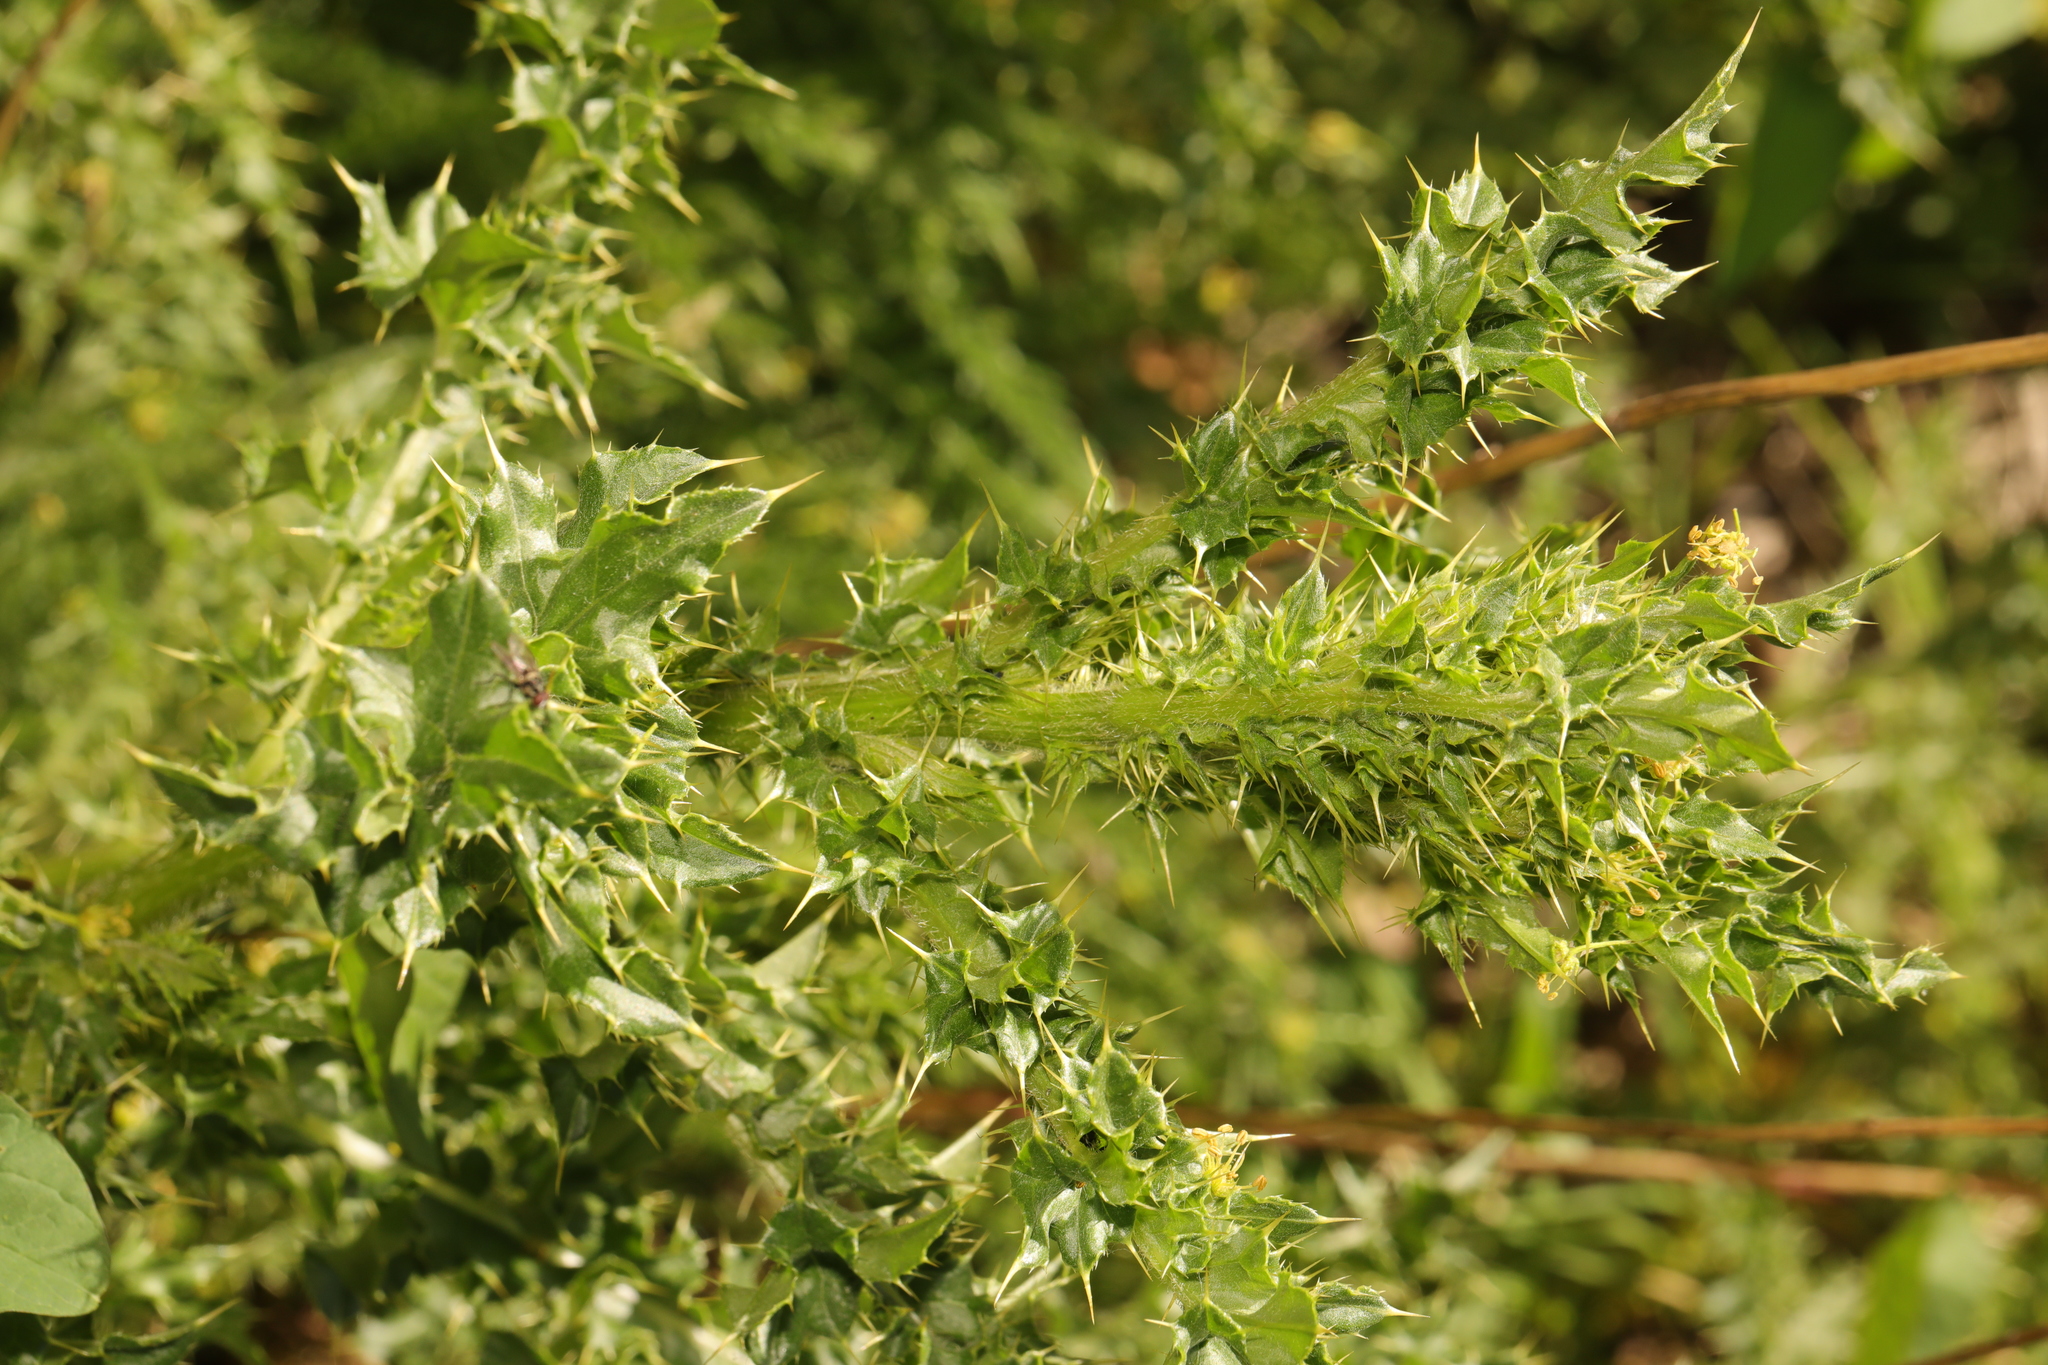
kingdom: Plantae
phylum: Tracheophyta
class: Magnoliopsida
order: Asterales
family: Asteraceae
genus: Cirsium
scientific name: Cirsium arvense
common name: Creeping thistle
